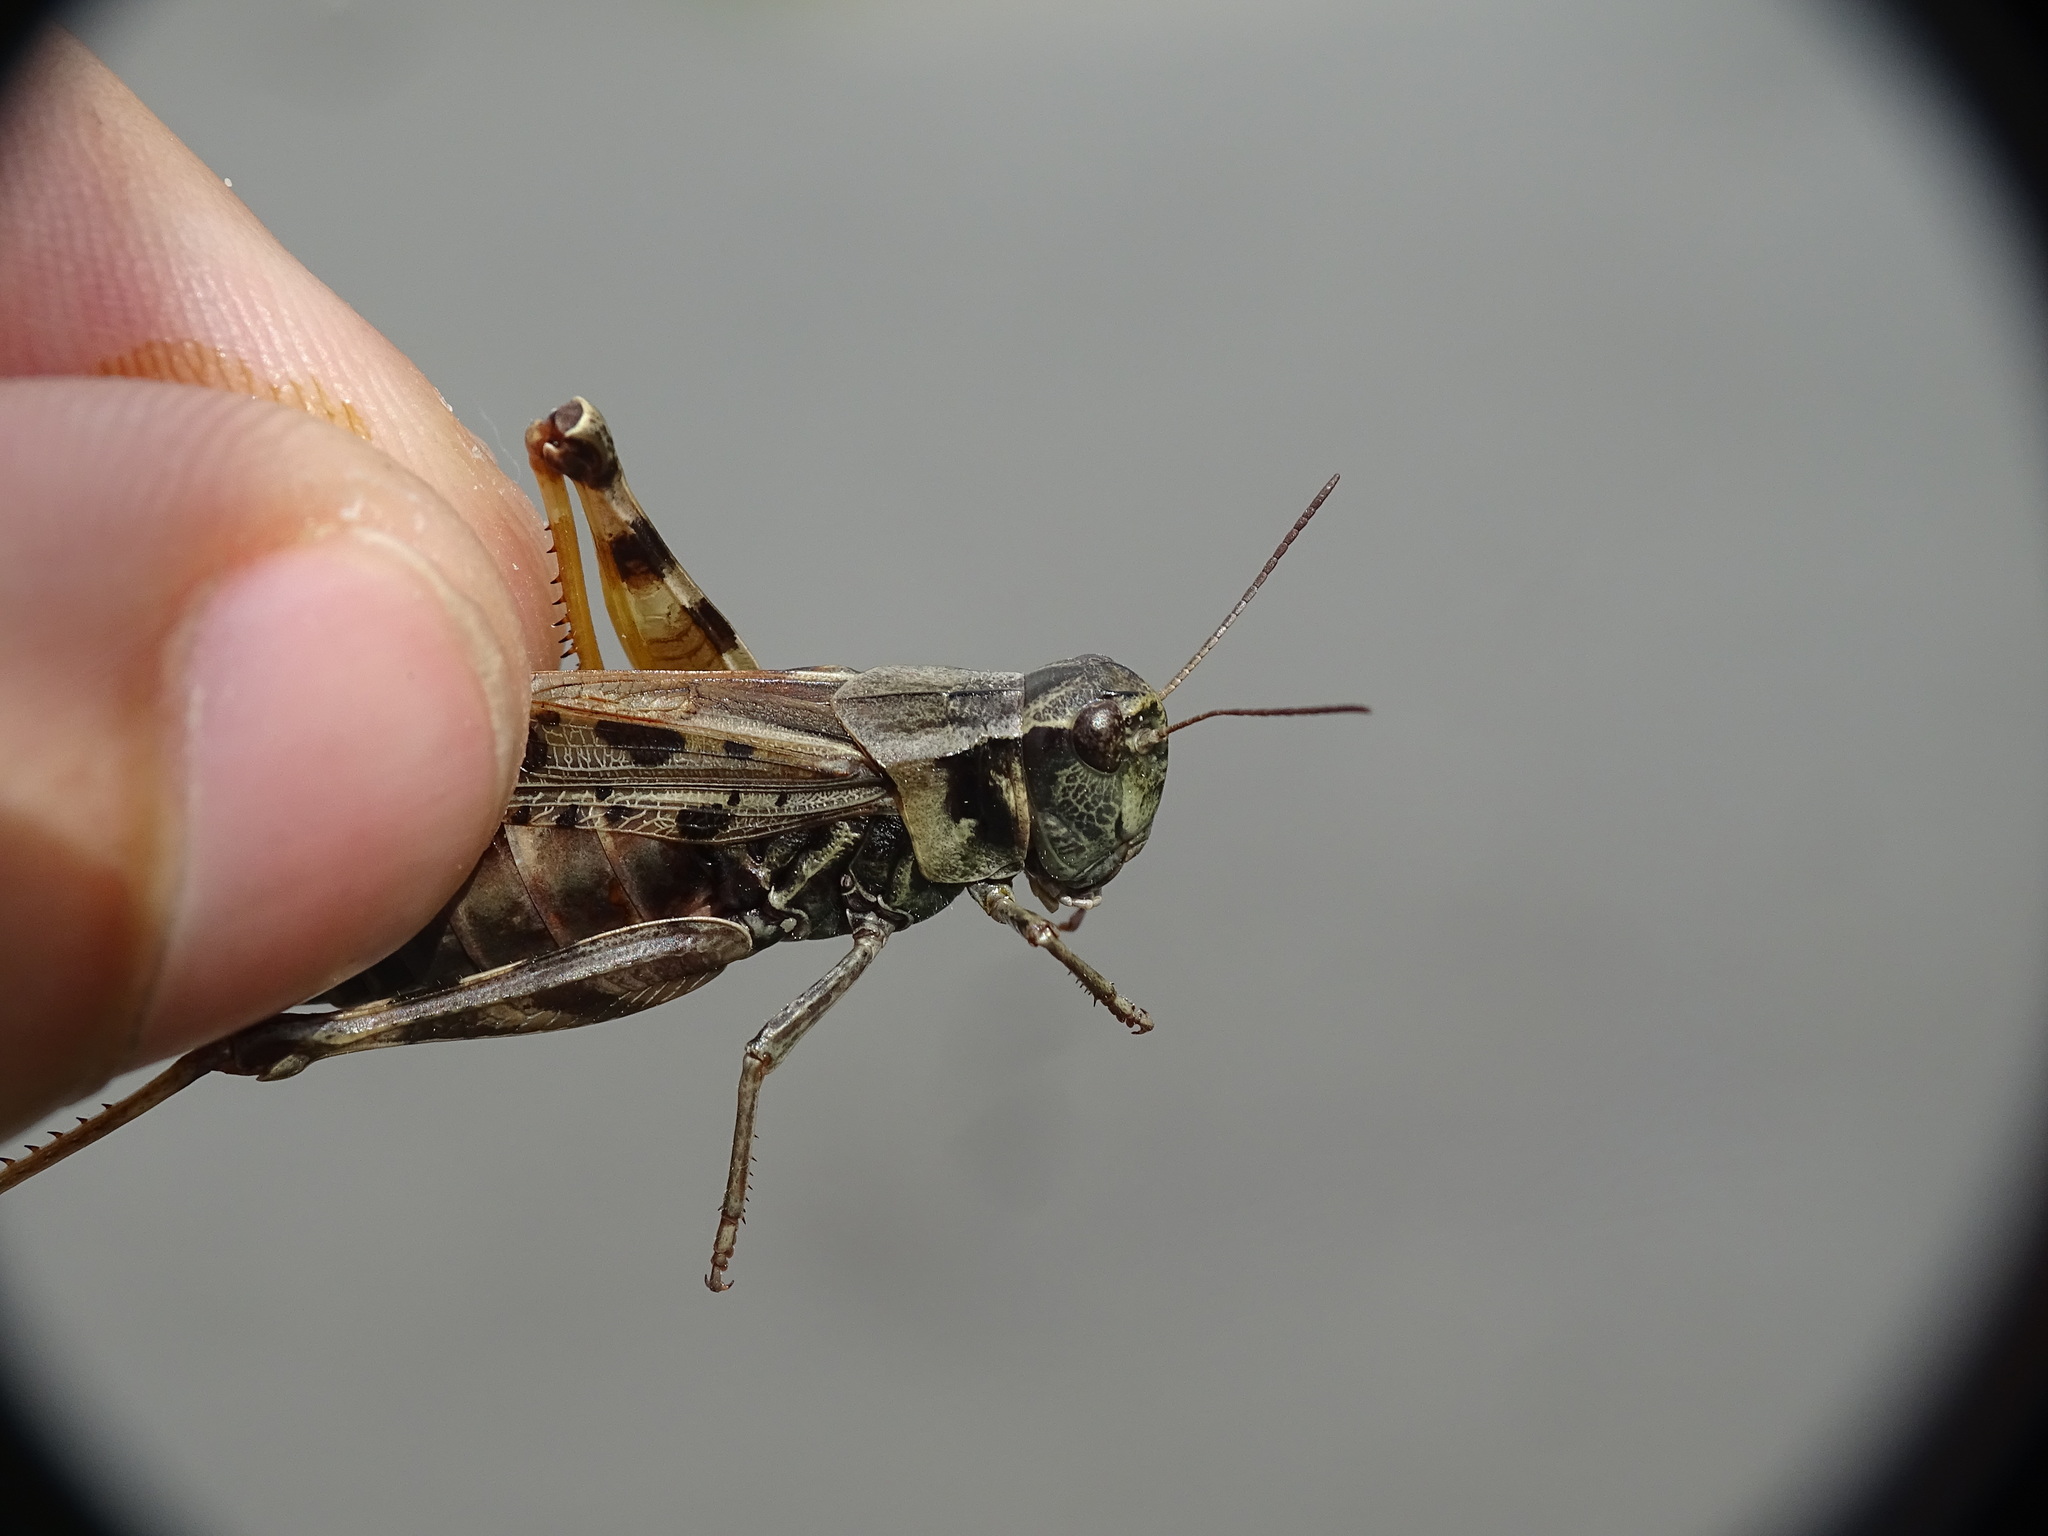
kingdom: Animalia
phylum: Arthropoda
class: Insecta
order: Orthoptera
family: Acrididae
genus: Camnula
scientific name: Camnula pellucida
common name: Clear-winged grasshopper
